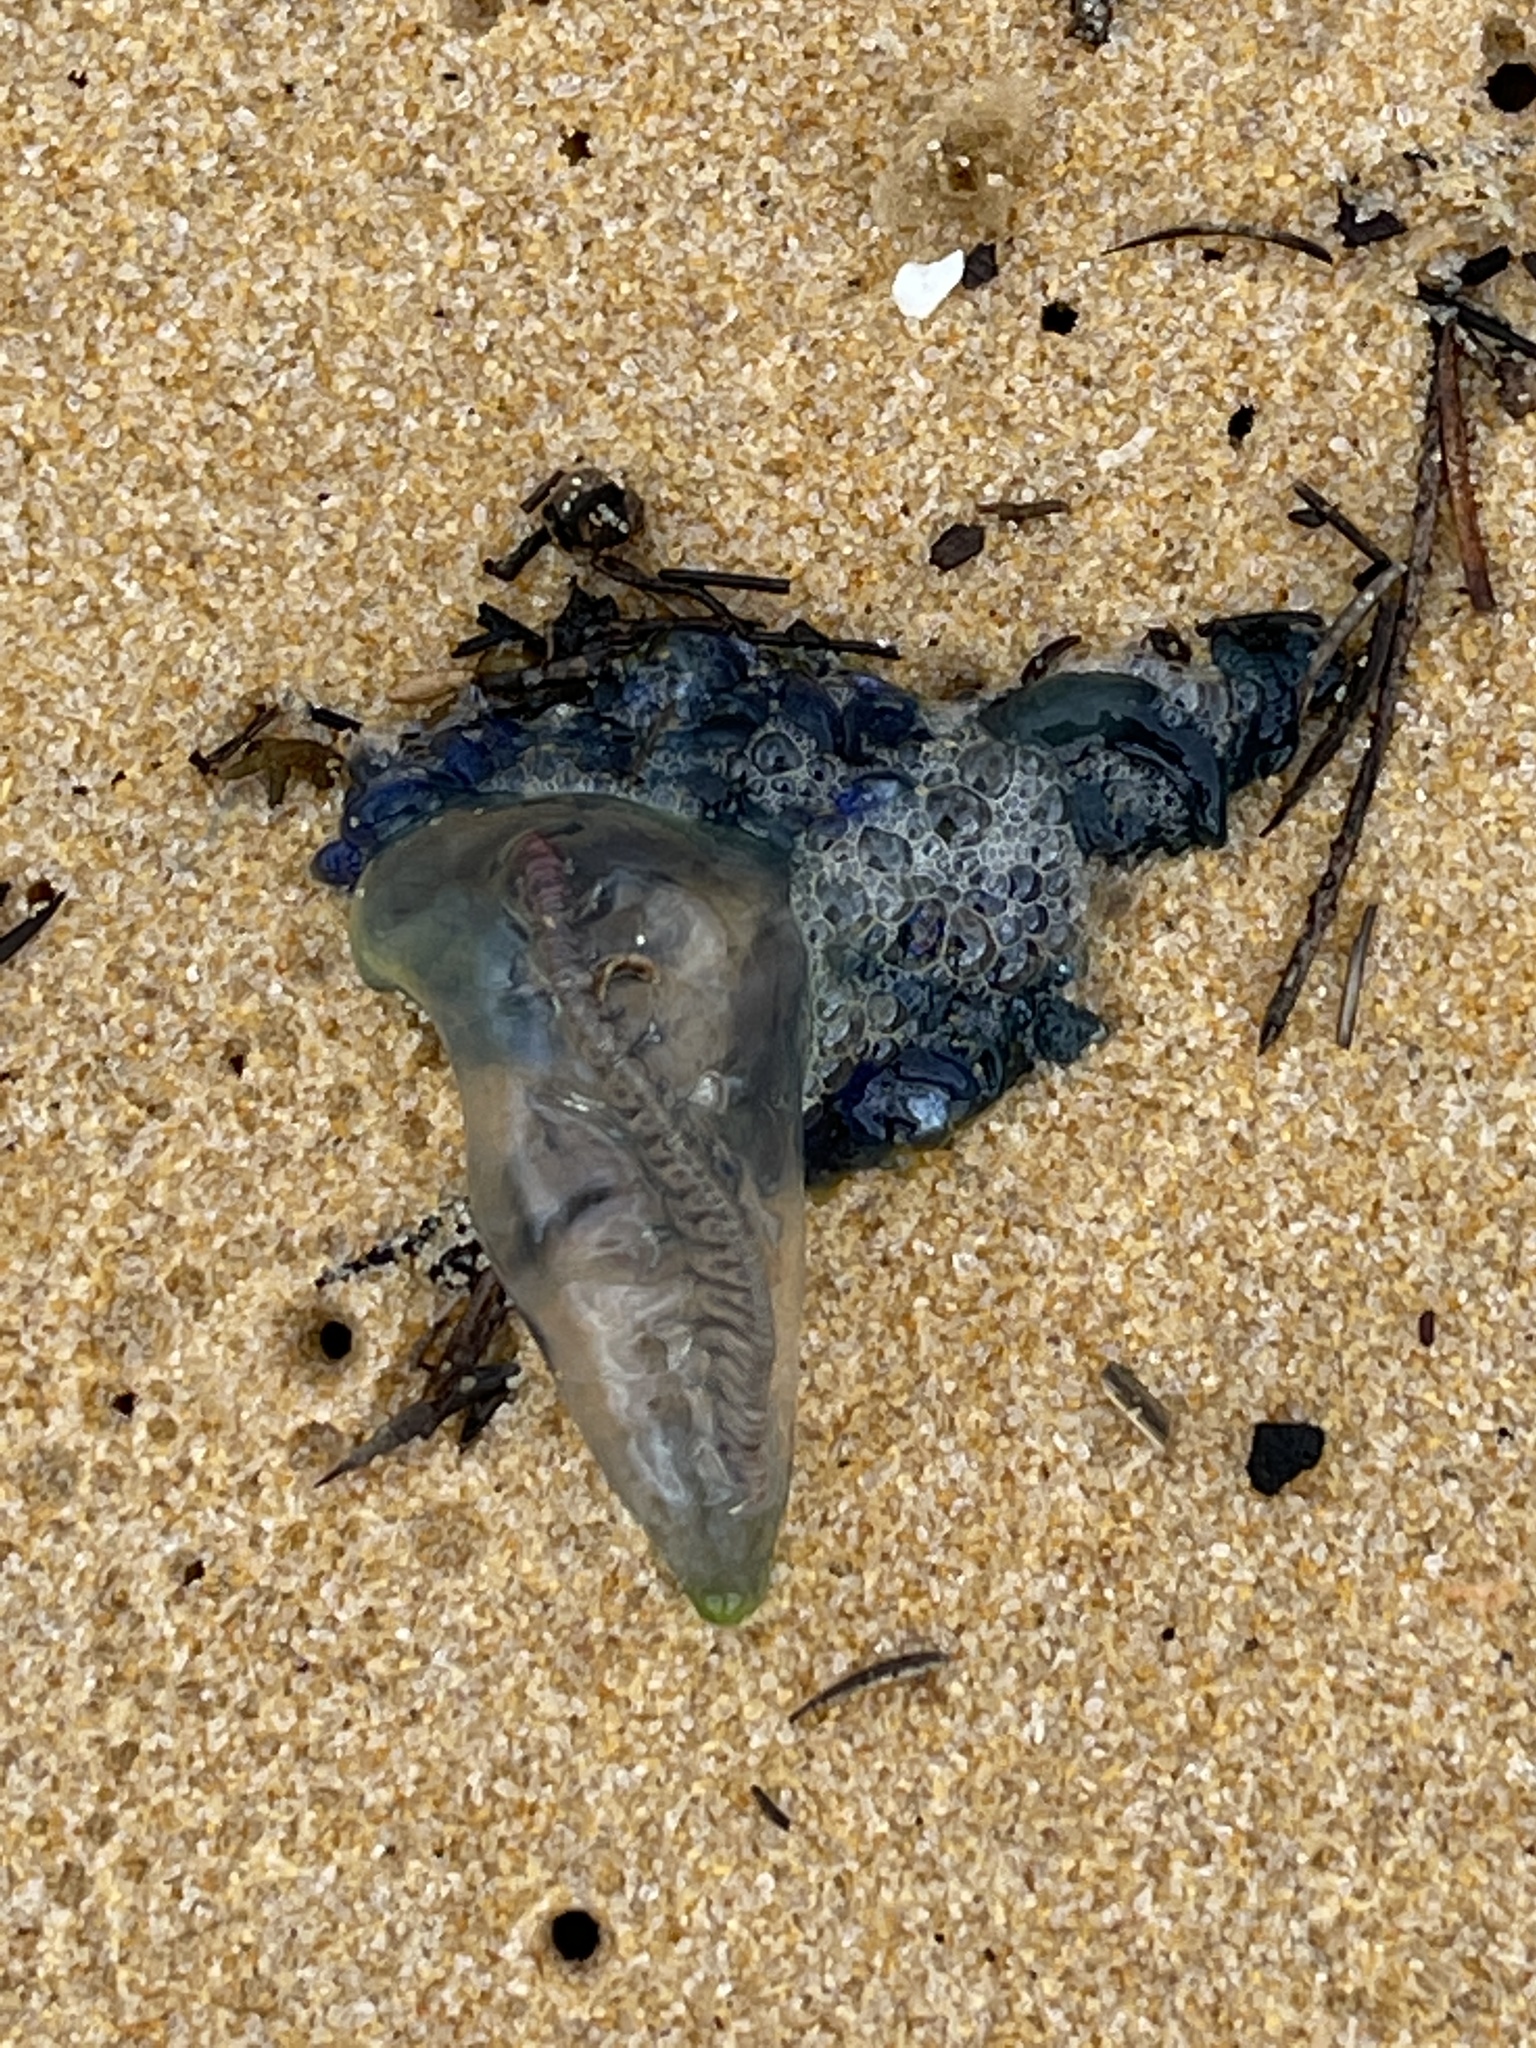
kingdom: Animalia
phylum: Cnidaria
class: Hydrozoa
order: Siphonophorae
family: Physaliidae
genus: Physalia
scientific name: Physalia physalis
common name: Portuguese man-of-war
